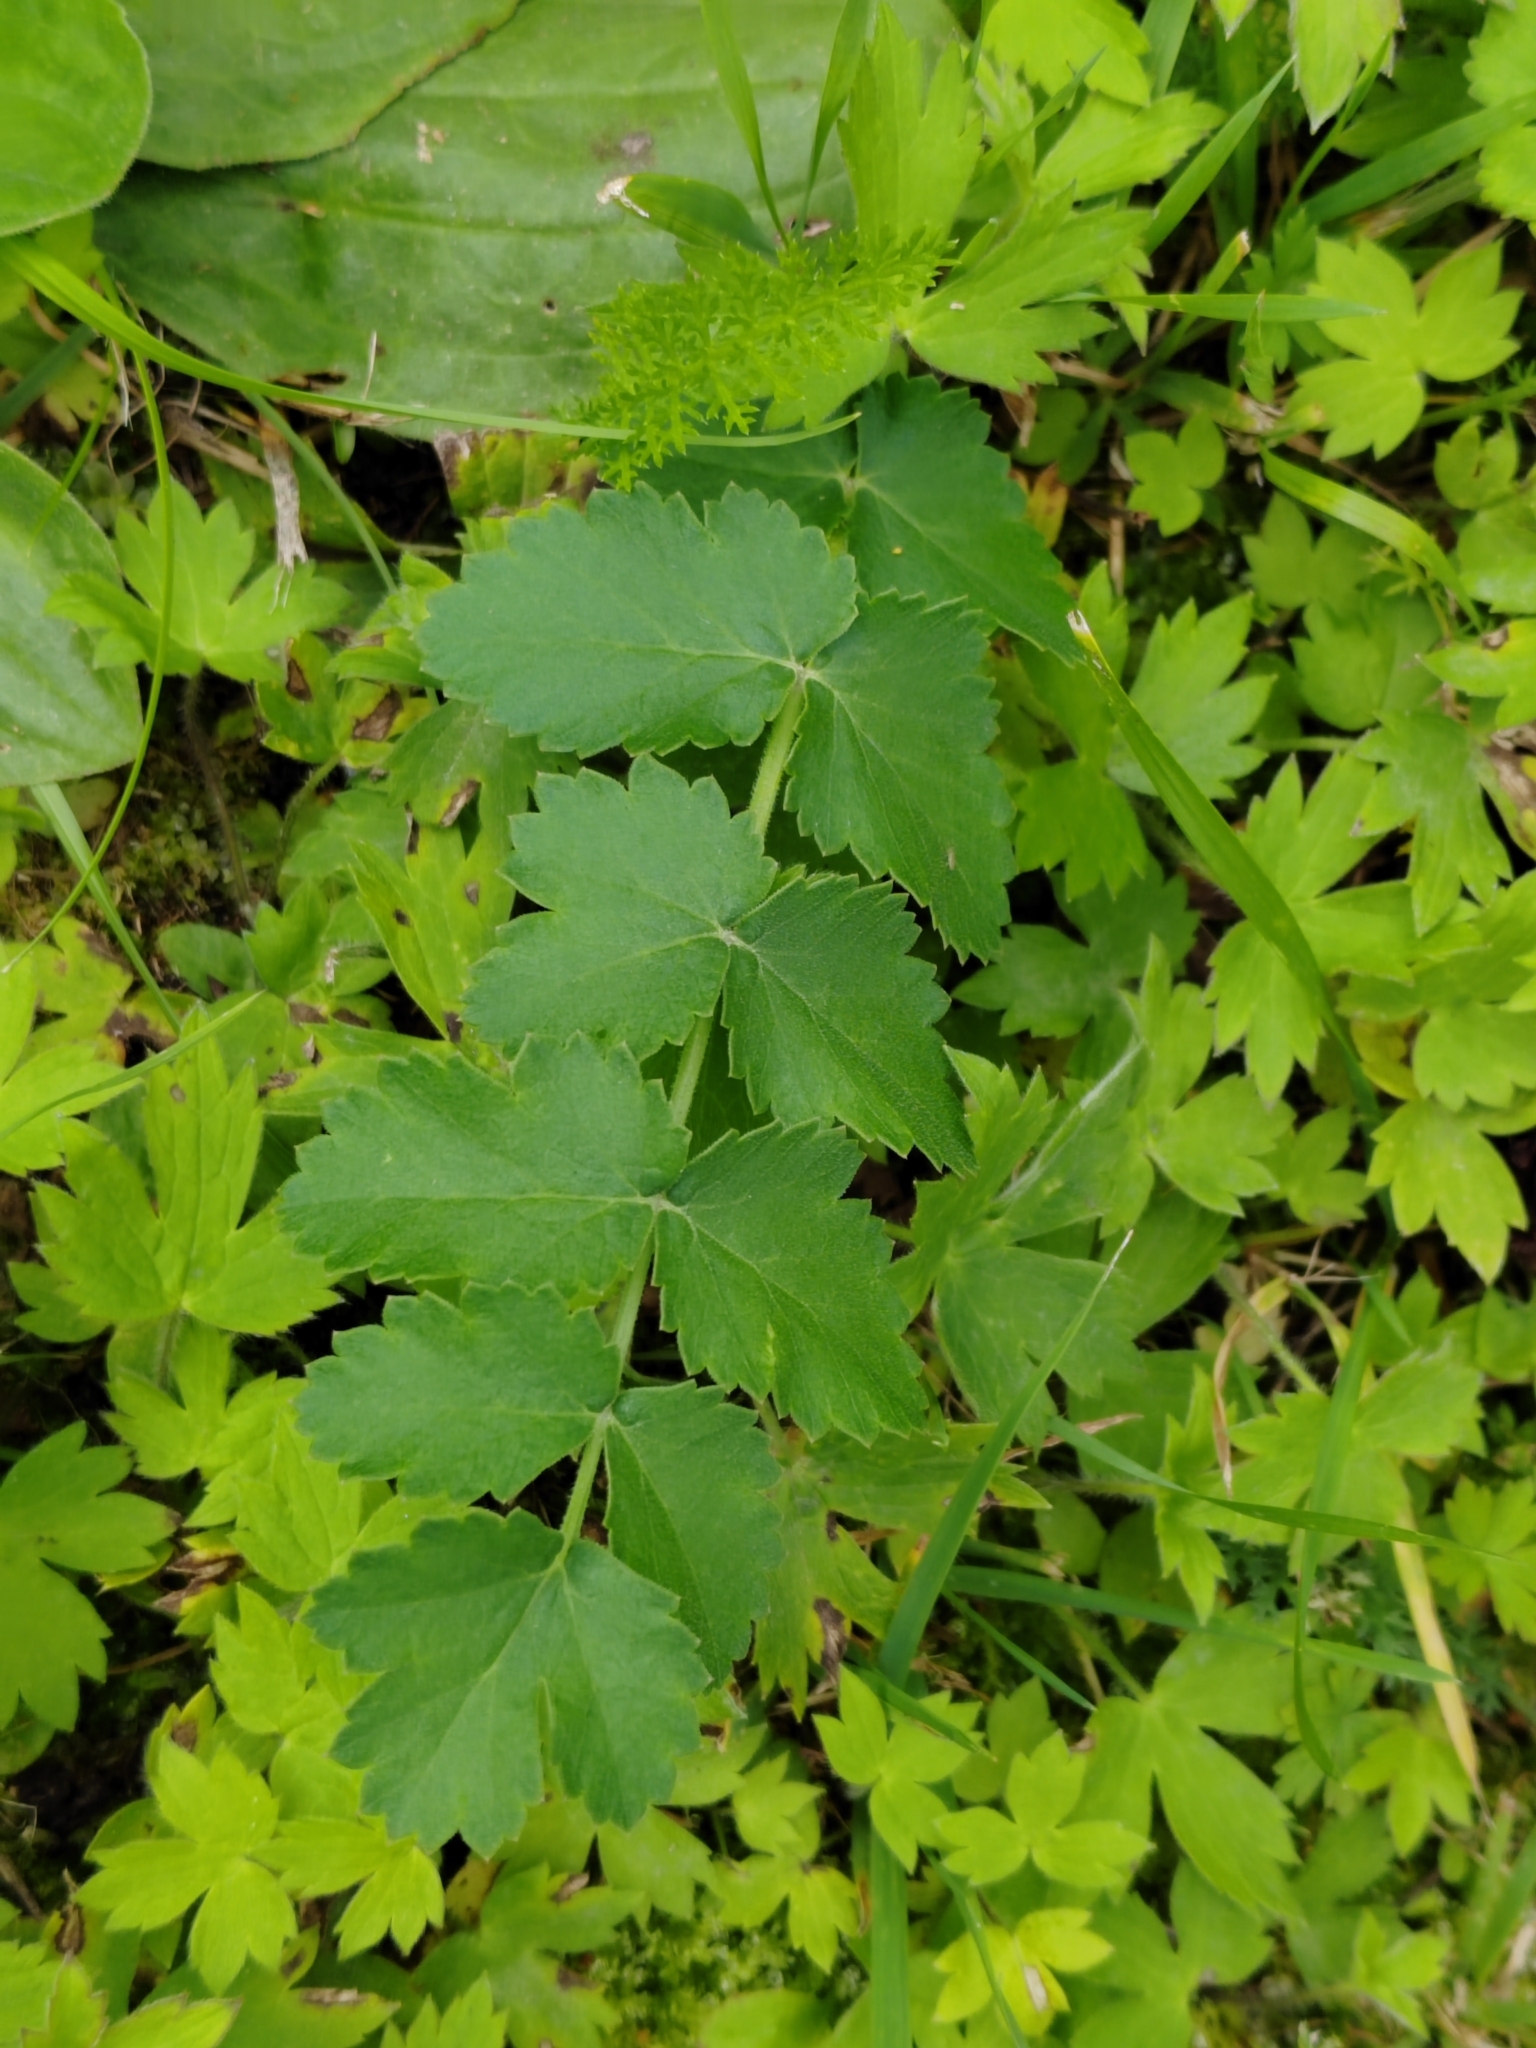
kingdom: Plantae
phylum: Tracheophyta
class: Magnoliopsida
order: Apiales
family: Apiaceae
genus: Pimpinella
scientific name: Pimpinella saxifraga
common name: Burnet-saxifrage
